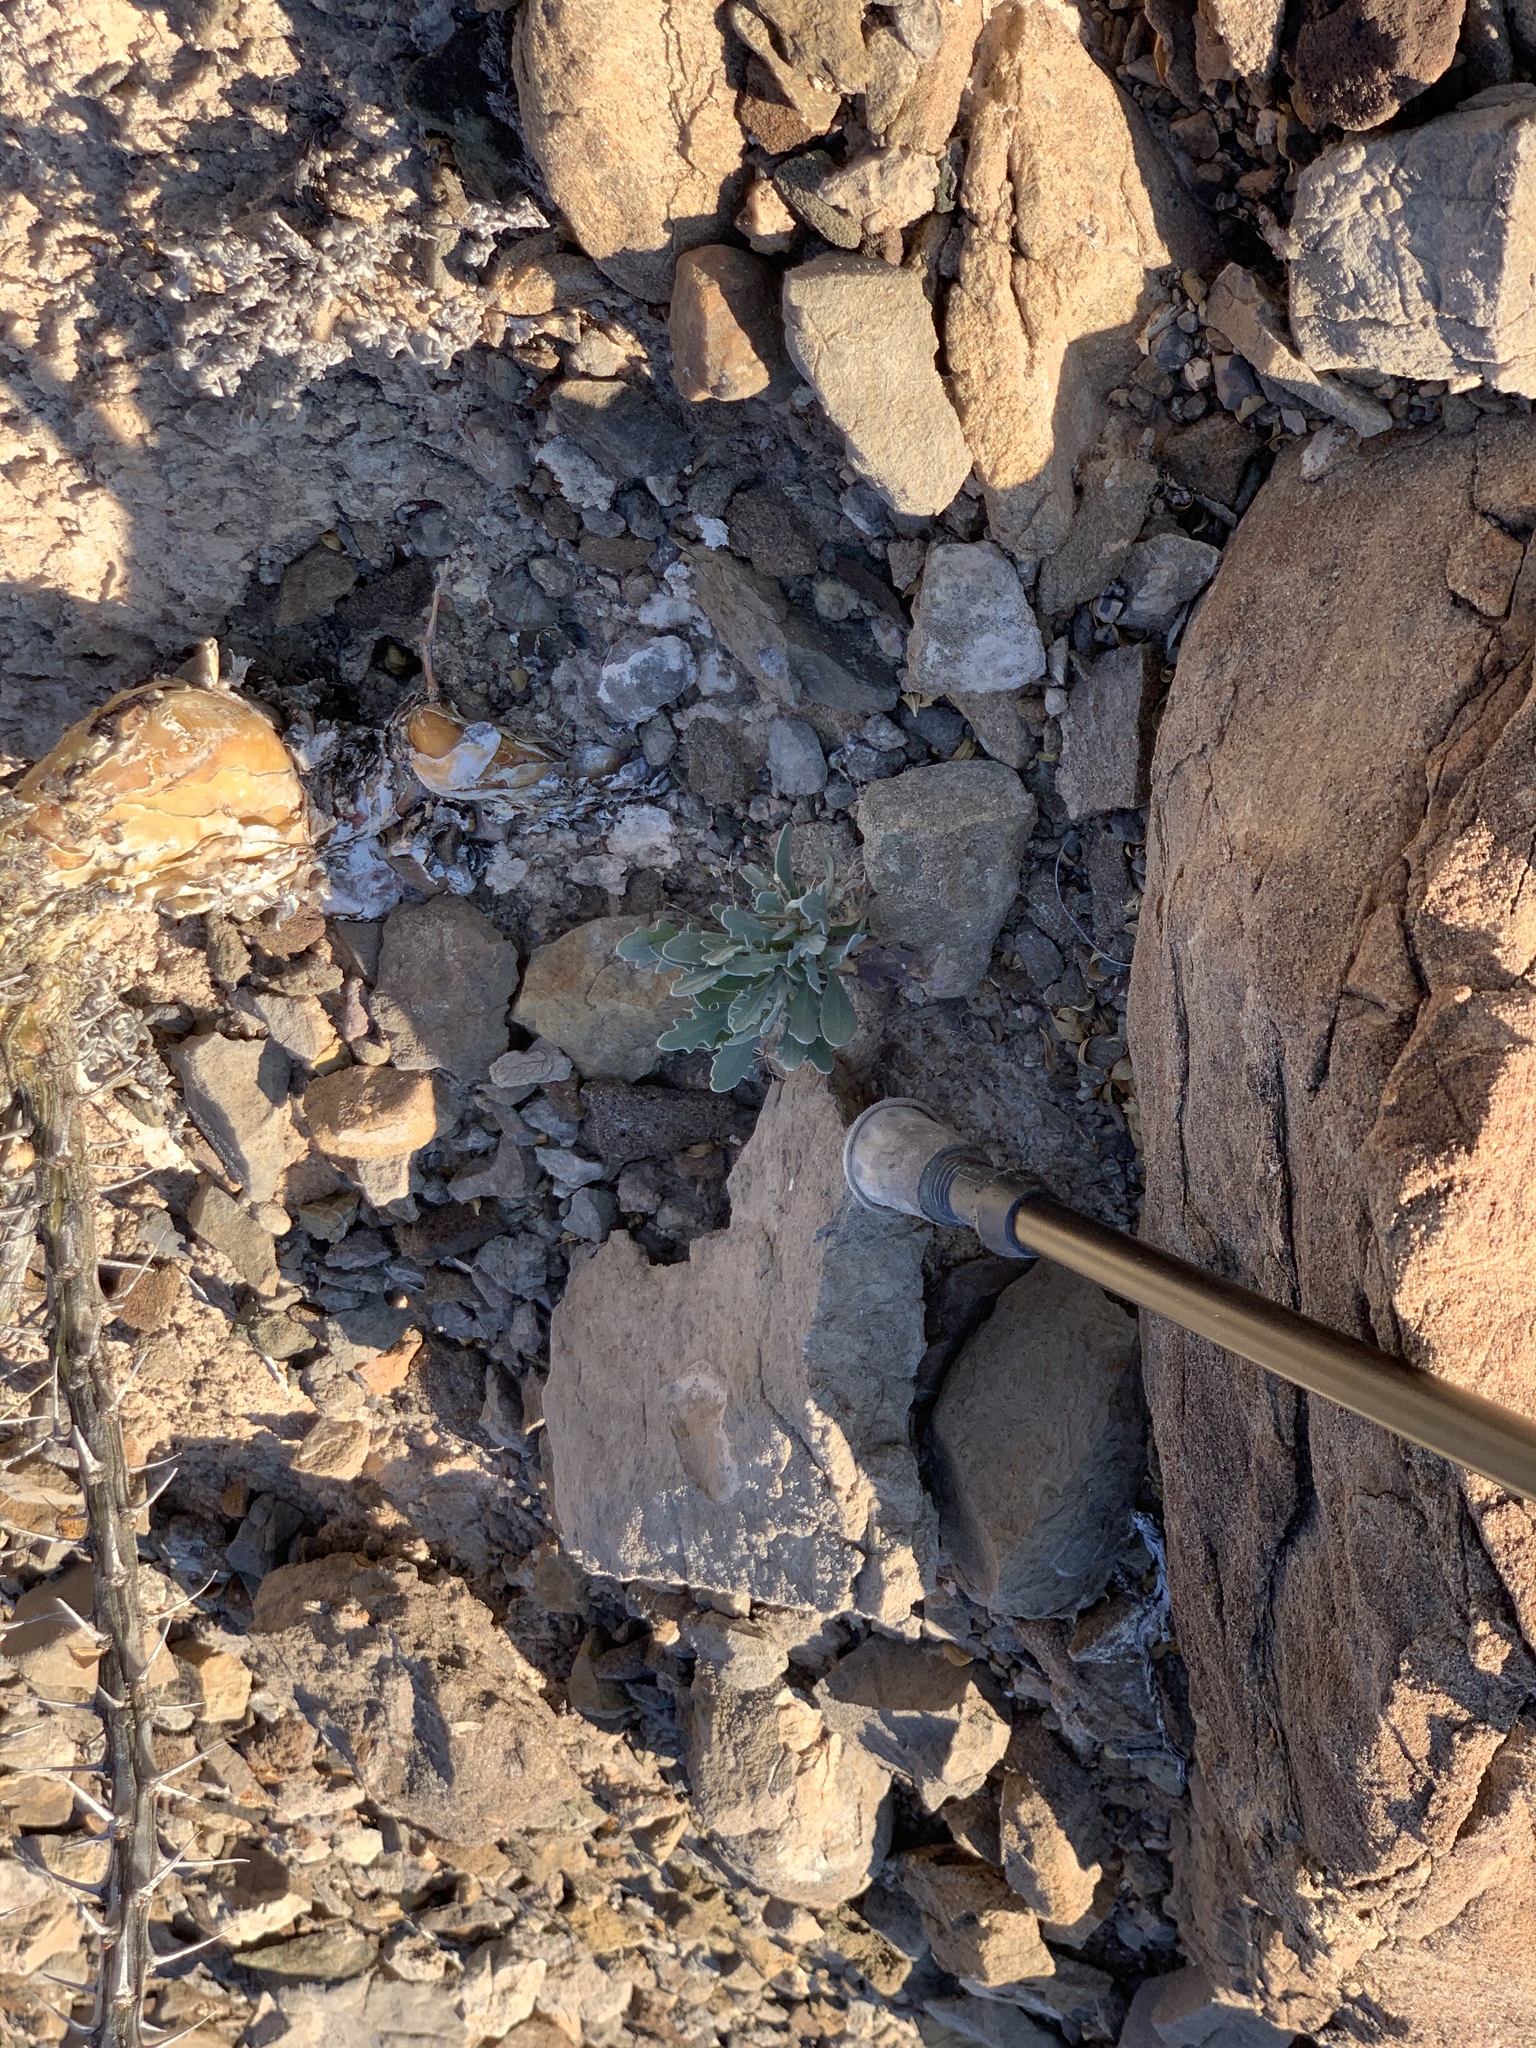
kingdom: Plantae
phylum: Tracheophyta
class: Magnoliopsida
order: Brassicales
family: Brassicaceae
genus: Nerisyrenia
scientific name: Nerisyrenia camporum
